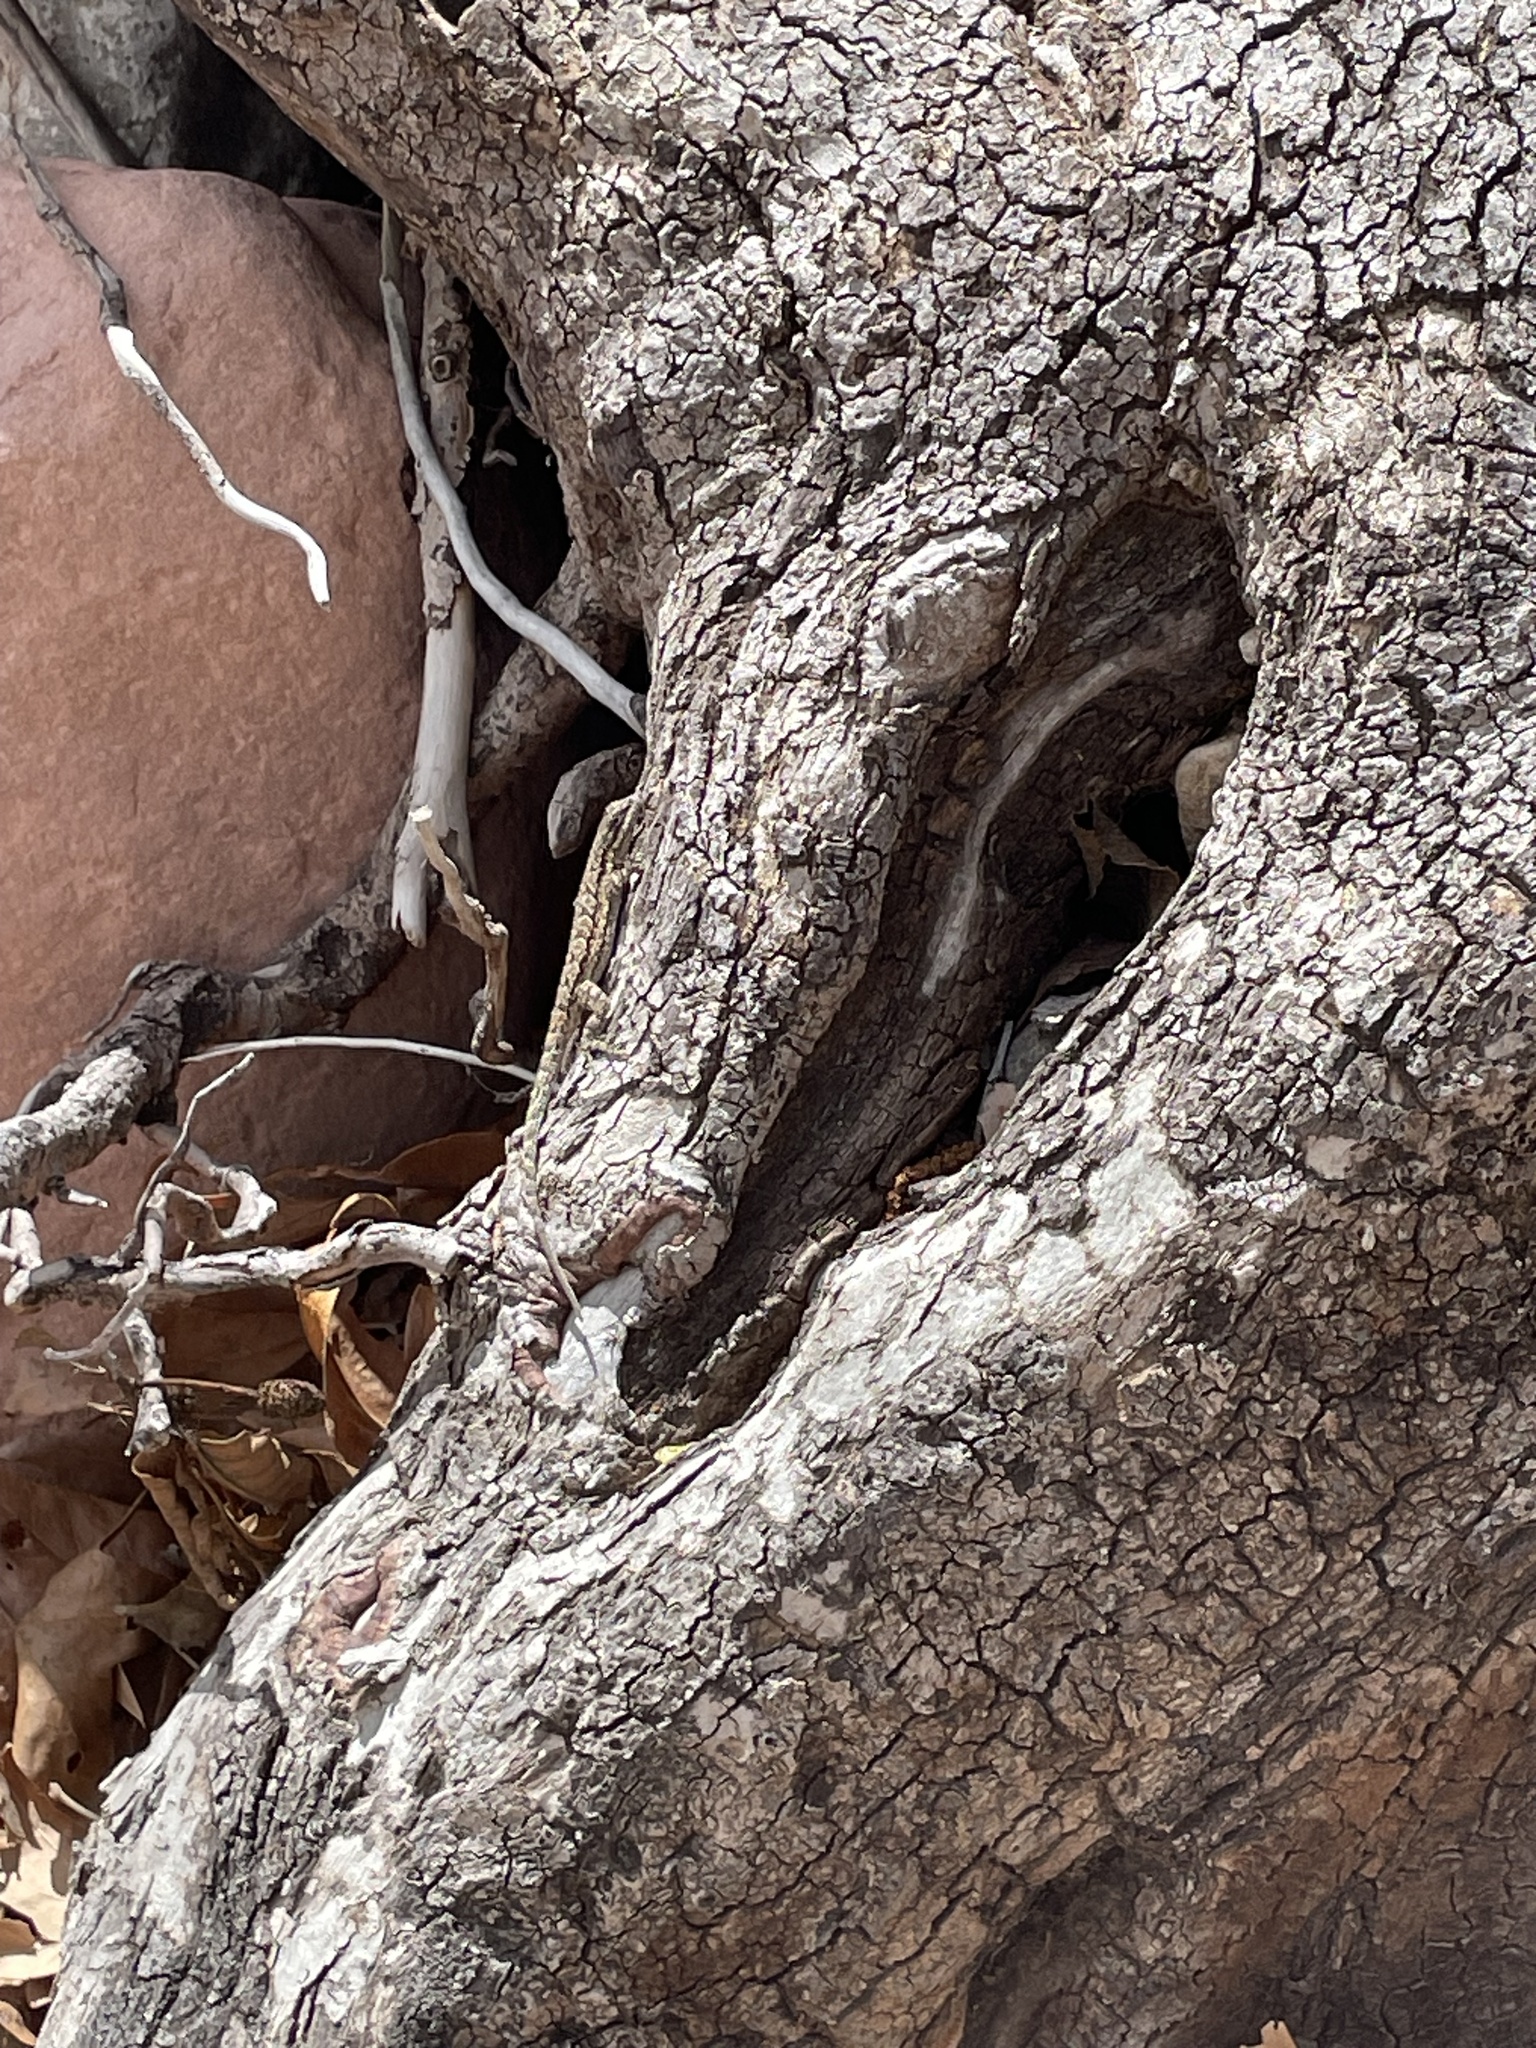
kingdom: Animalia
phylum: Chordata
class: Squamata
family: Phrynosomatidae
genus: Urosaurus
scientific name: Urosaurus ornatus
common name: Ornate tree lizard
